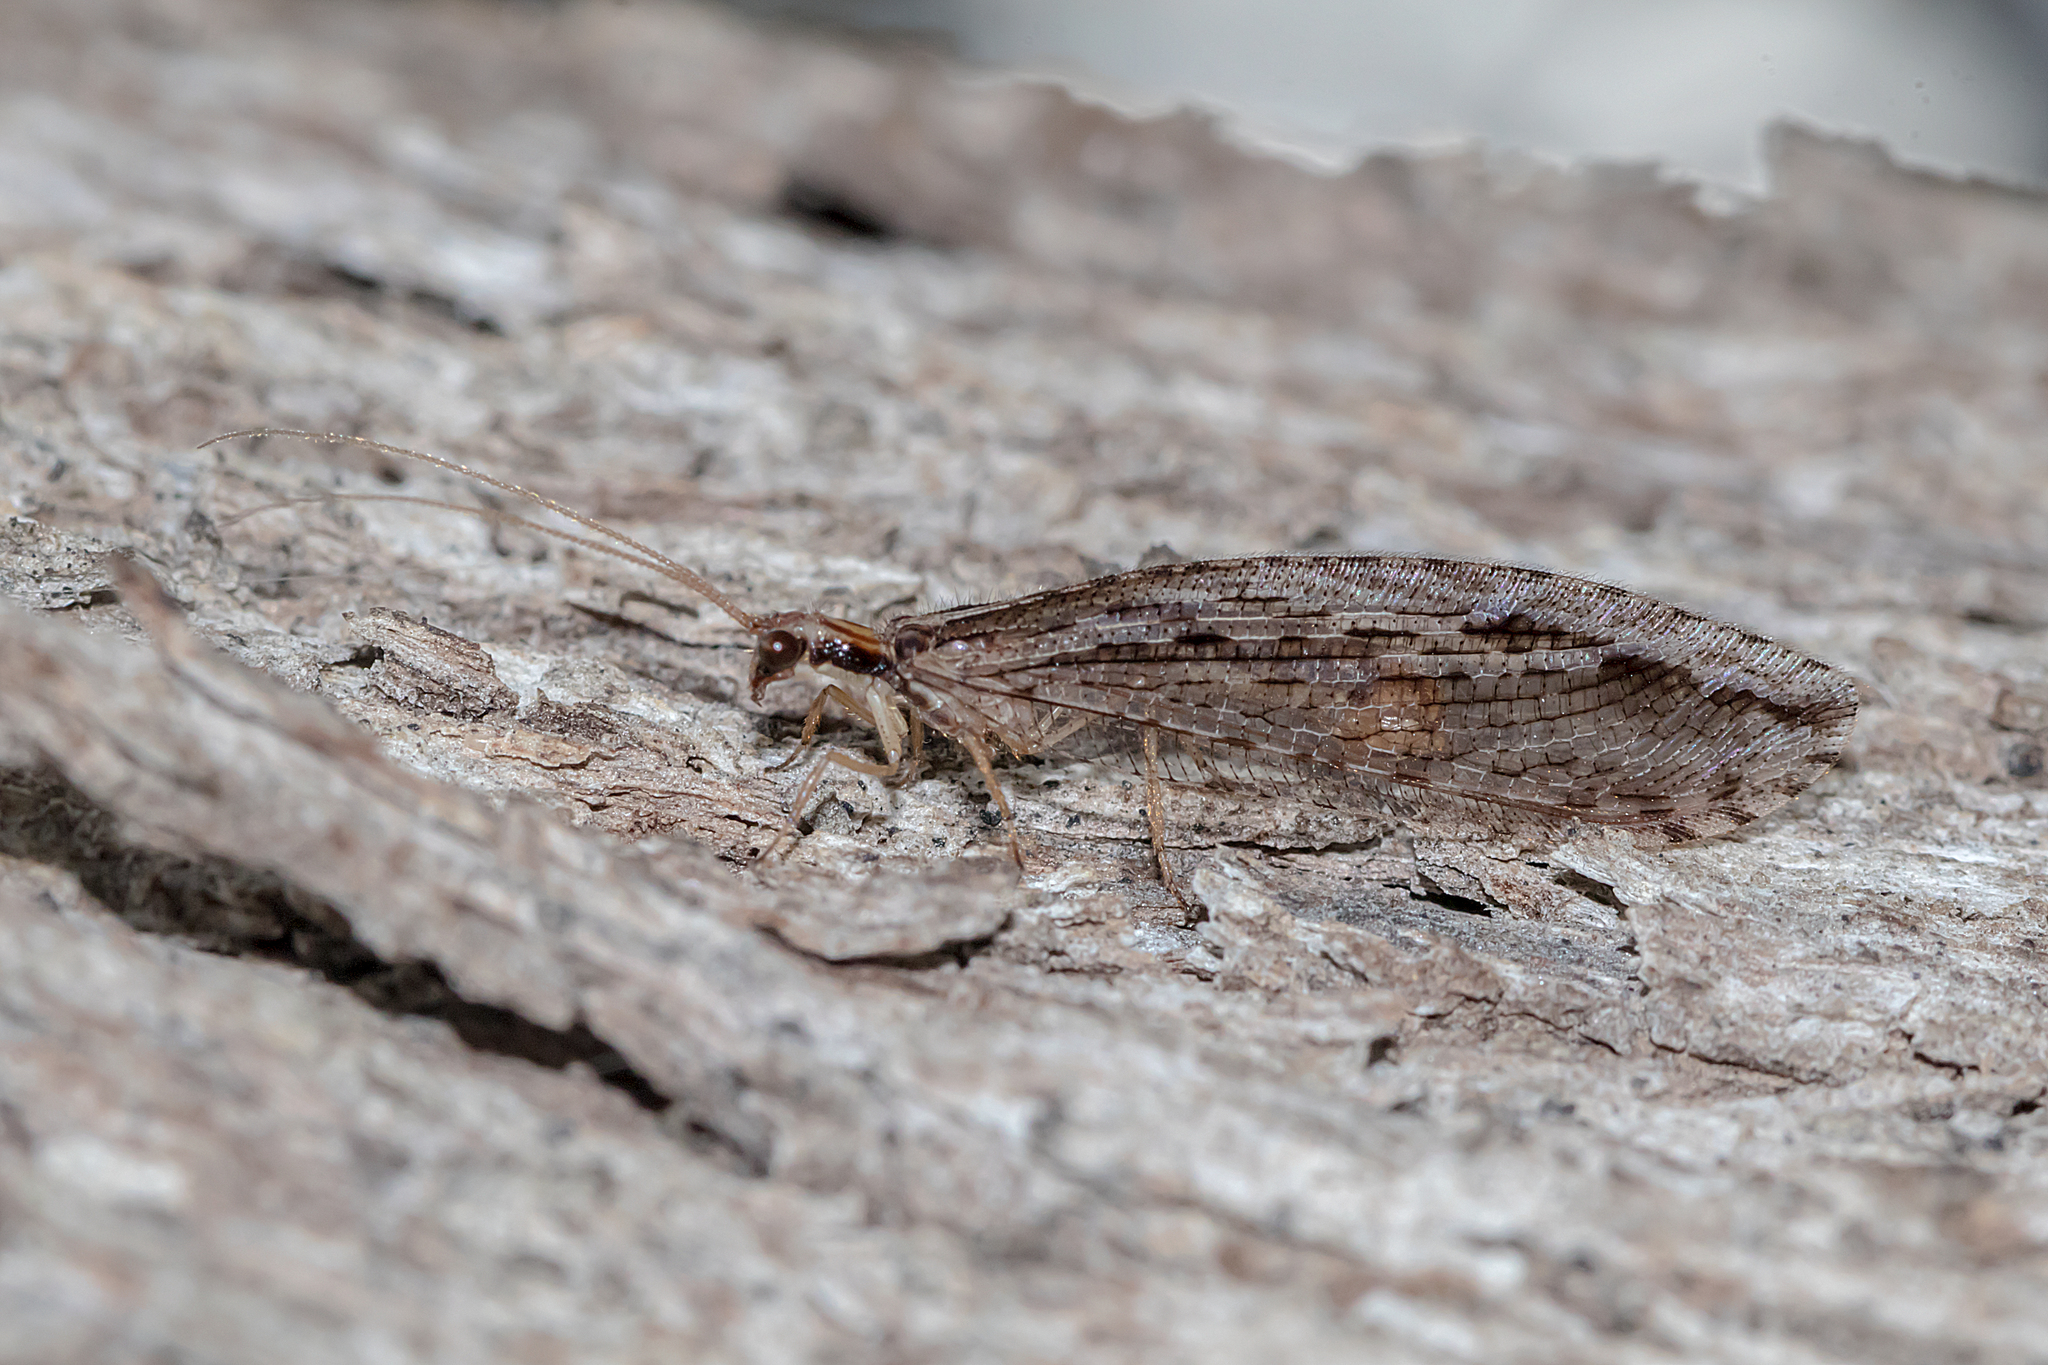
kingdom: Animalia
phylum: Arthropoda
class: Insecta
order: Neuroptera
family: Osmylidae
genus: Stenosmylus
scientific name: Stenosmylus stenopterus
